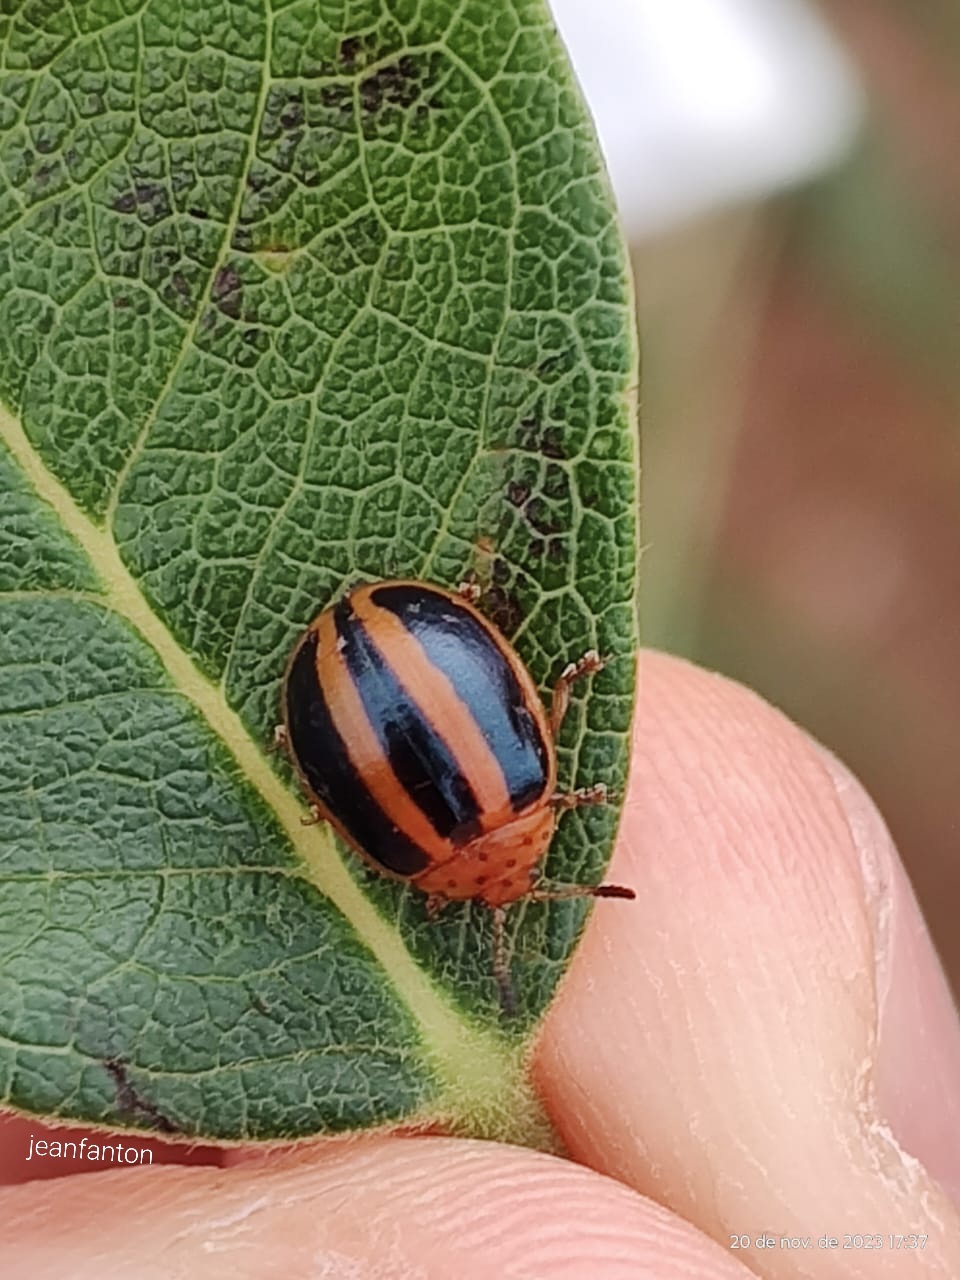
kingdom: Animalia
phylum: Arthropoda
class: Insecta
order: Coleoptera
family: Chrysomelidae
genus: Plagiodera
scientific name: Plagiodera
